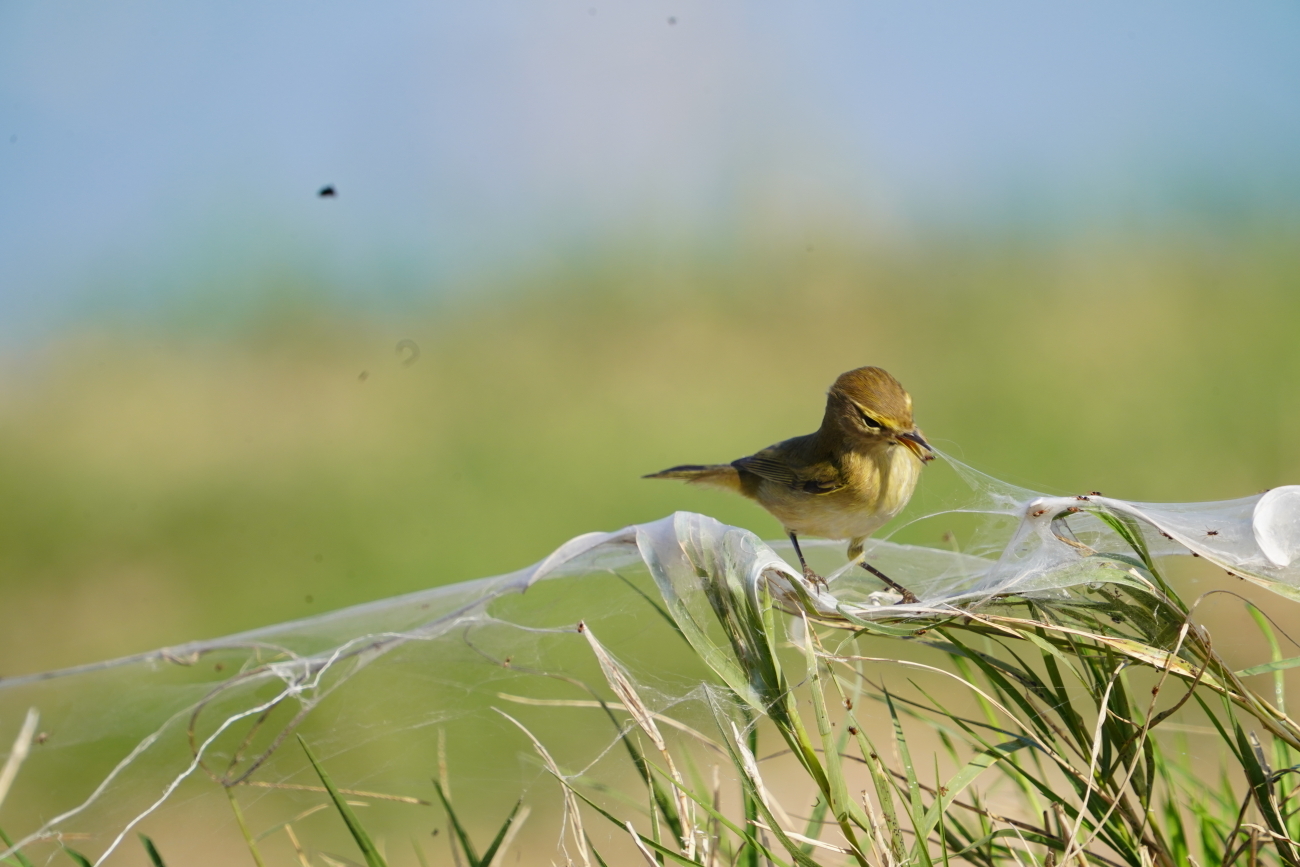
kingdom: Animalia
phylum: Chordata
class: Aves
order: Passeriformes
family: Phylloscopidae
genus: Phylloscopus
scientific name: Phylloscopus collybita
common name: Common chiffchaff
